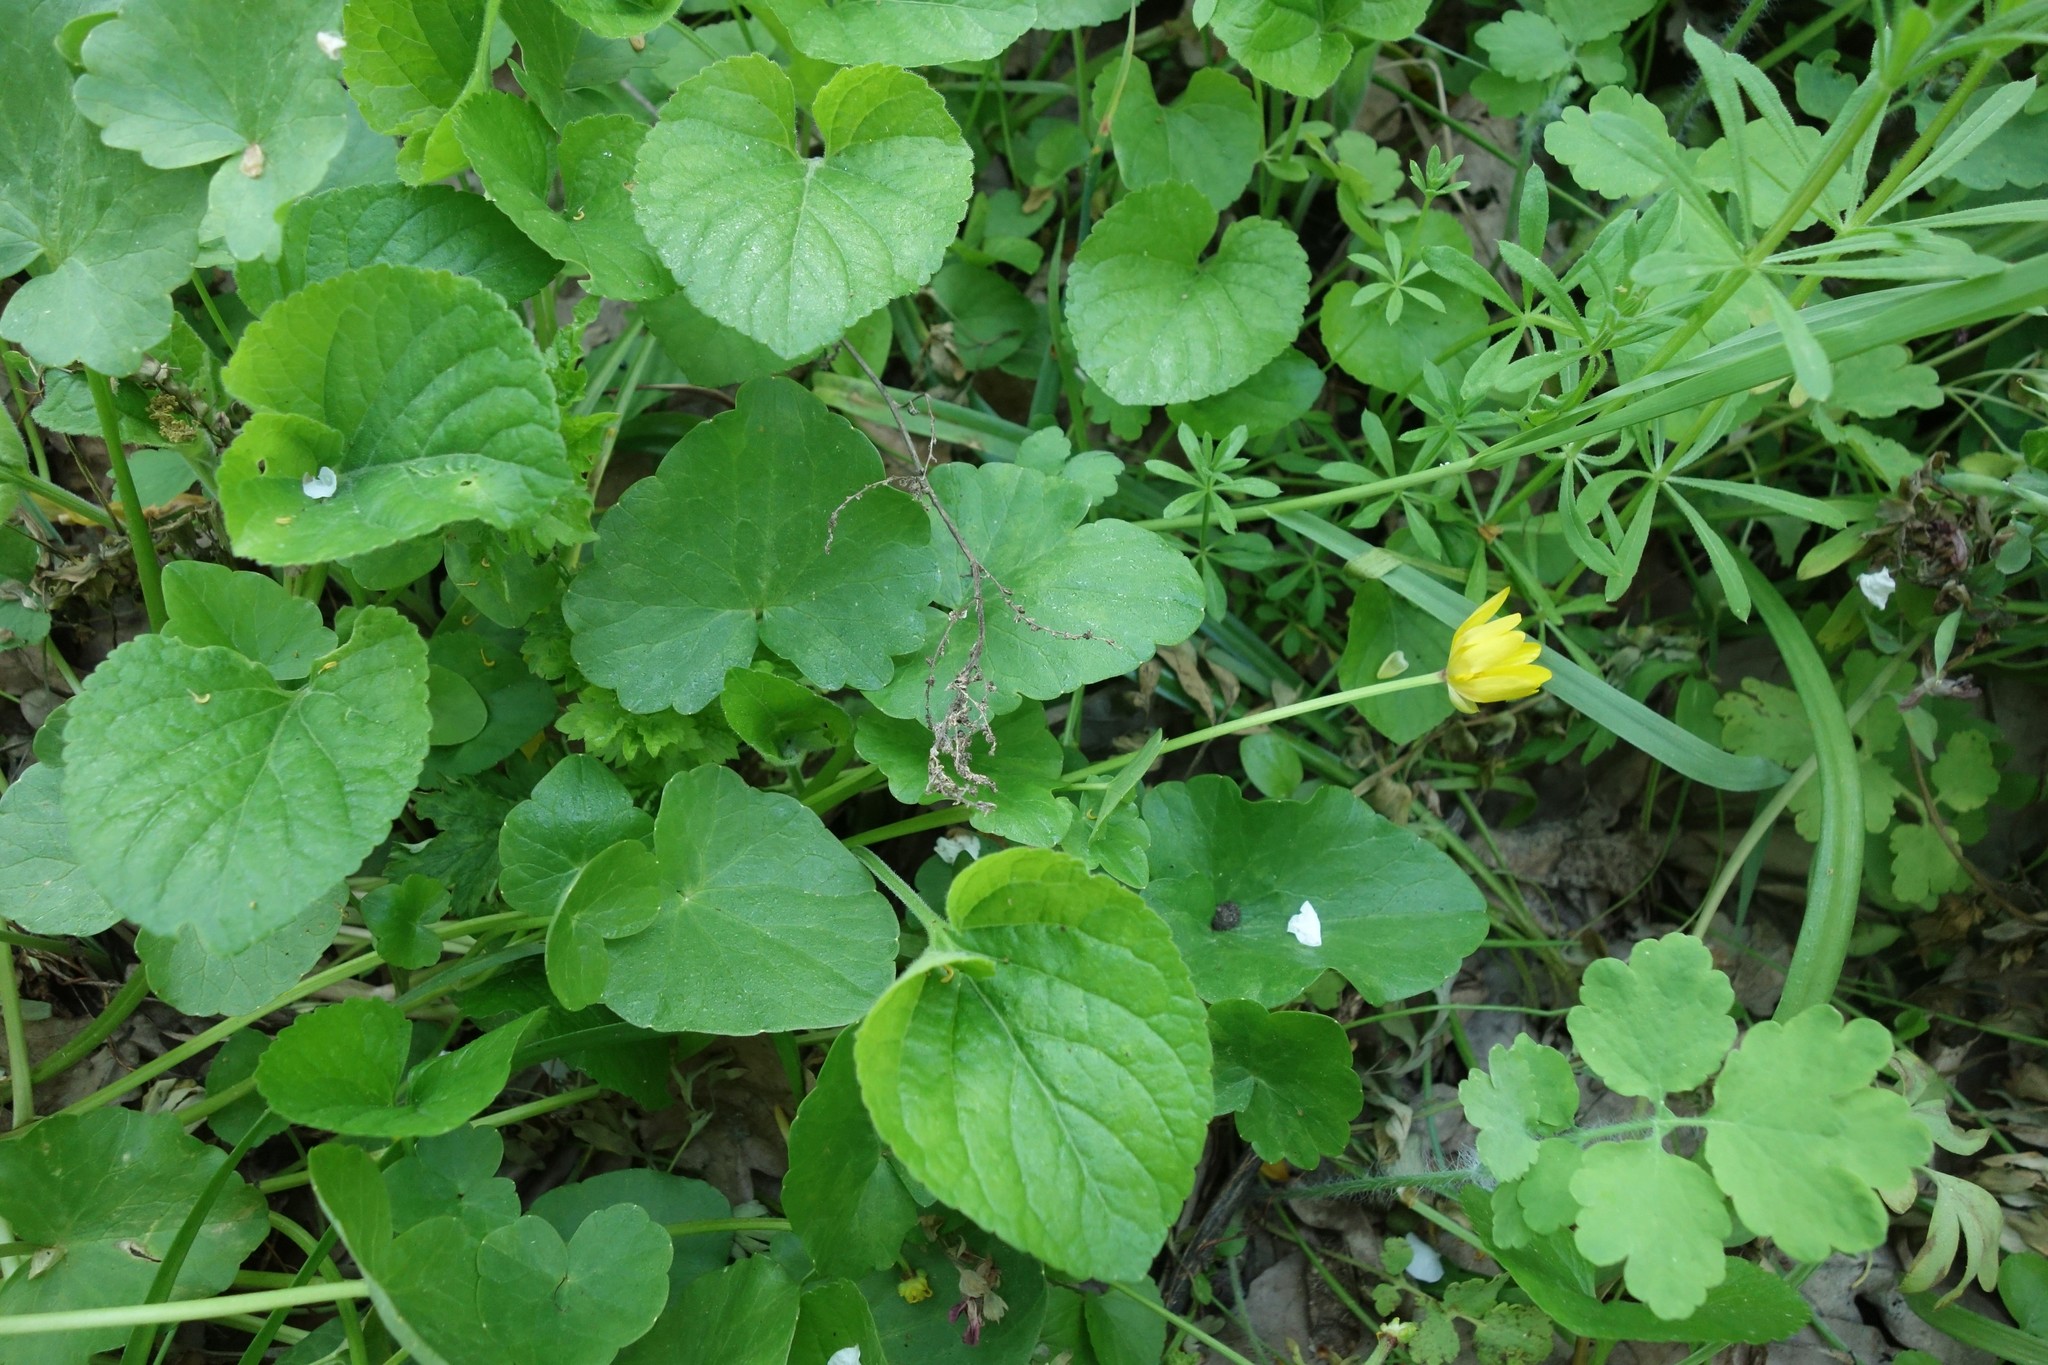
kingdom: Plantae
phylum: Tracheophyta
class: Magnoliopsida
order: Ranunculales
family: Ranunculaceae
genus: Ficaria
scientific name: Ficaria verna
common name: Lesser celandine
